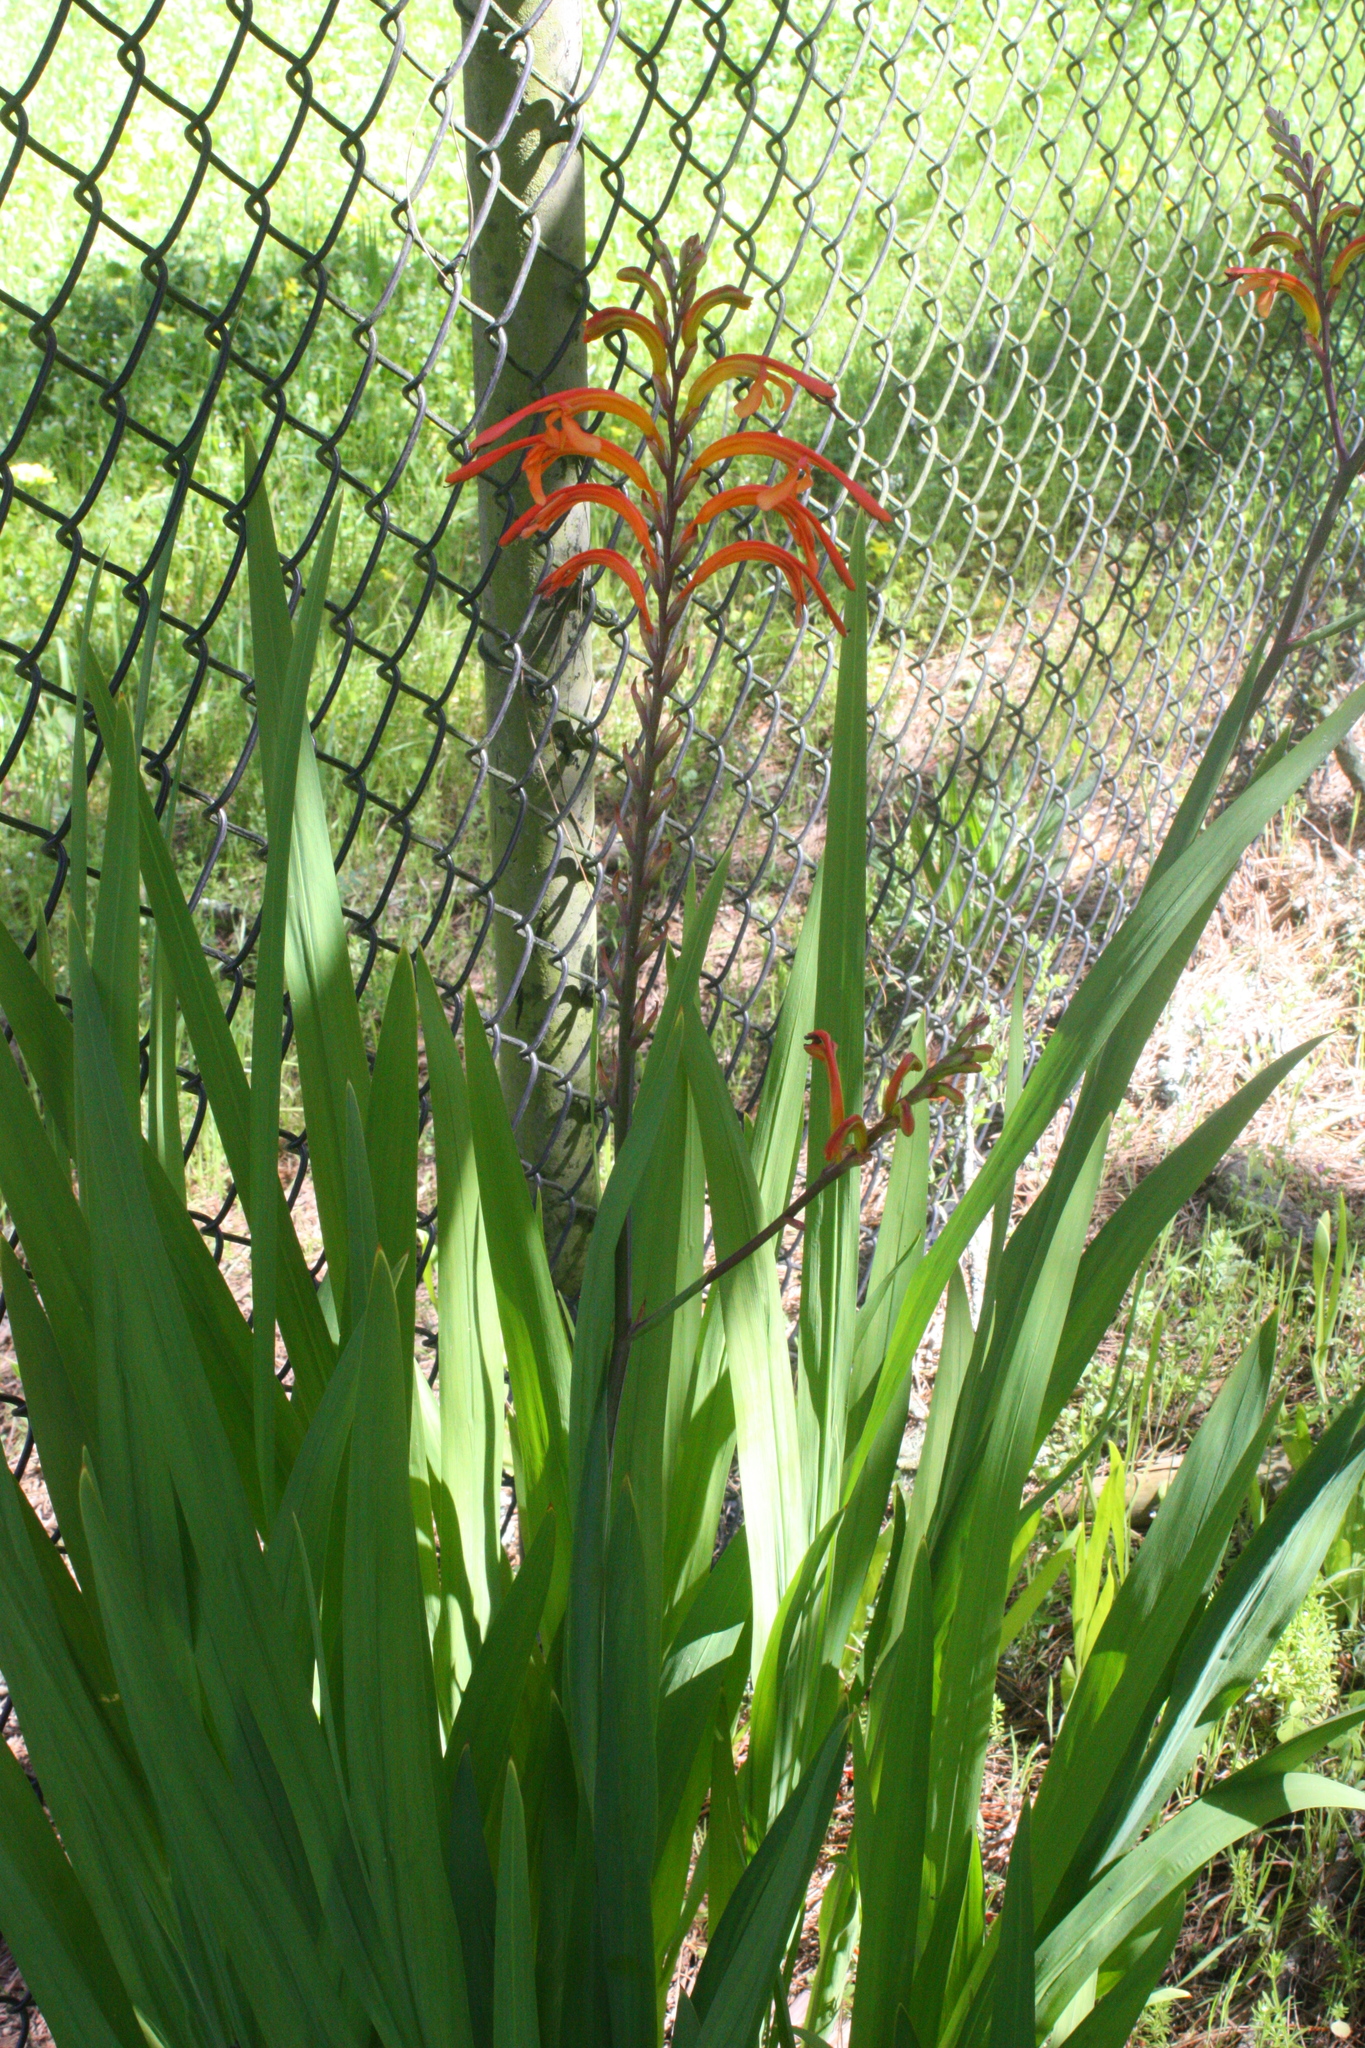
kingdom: Plantae
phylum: Tracheophyta
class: Liliopsida
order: Asparagales
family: Iridaceae
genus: Chasmanthe
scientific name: Chasmanthe floribunda
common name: African cornflag
